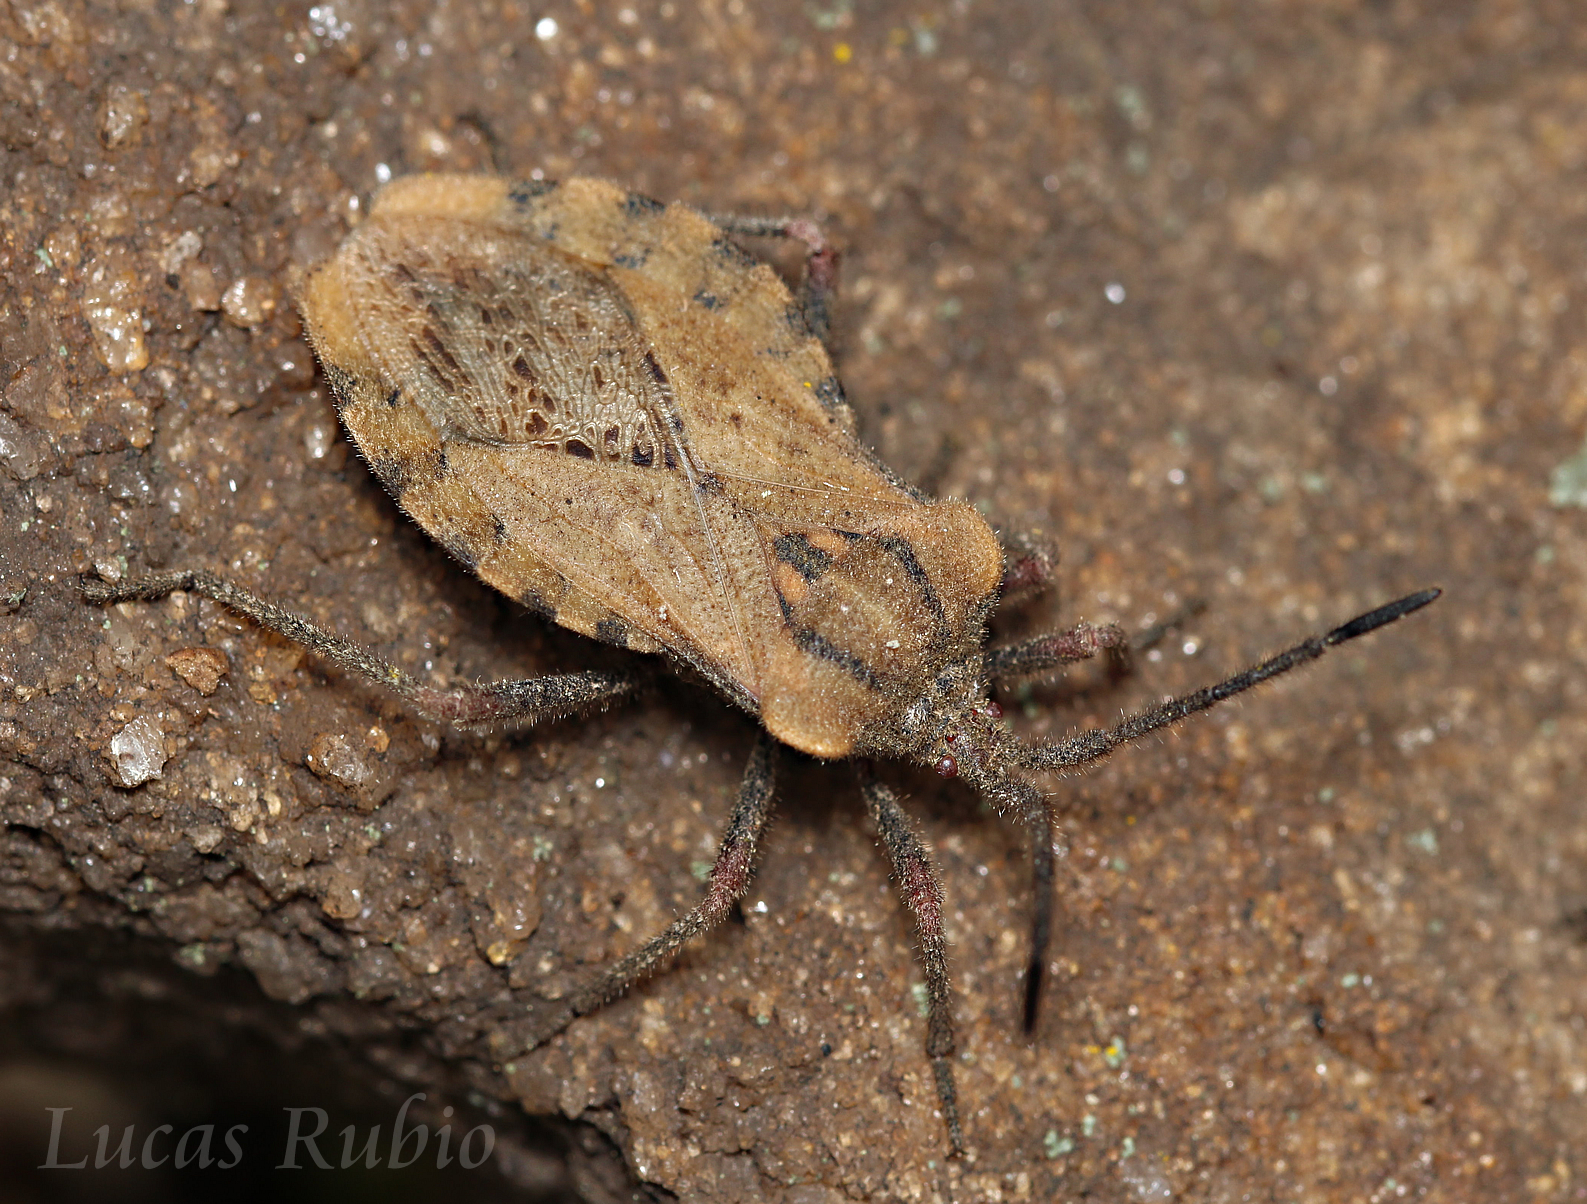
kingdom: Animalia
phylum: Arthropoda
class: Insecta
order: Hemiptera
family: Coreidae
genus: Spartocera
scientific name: Spartocera fusca
